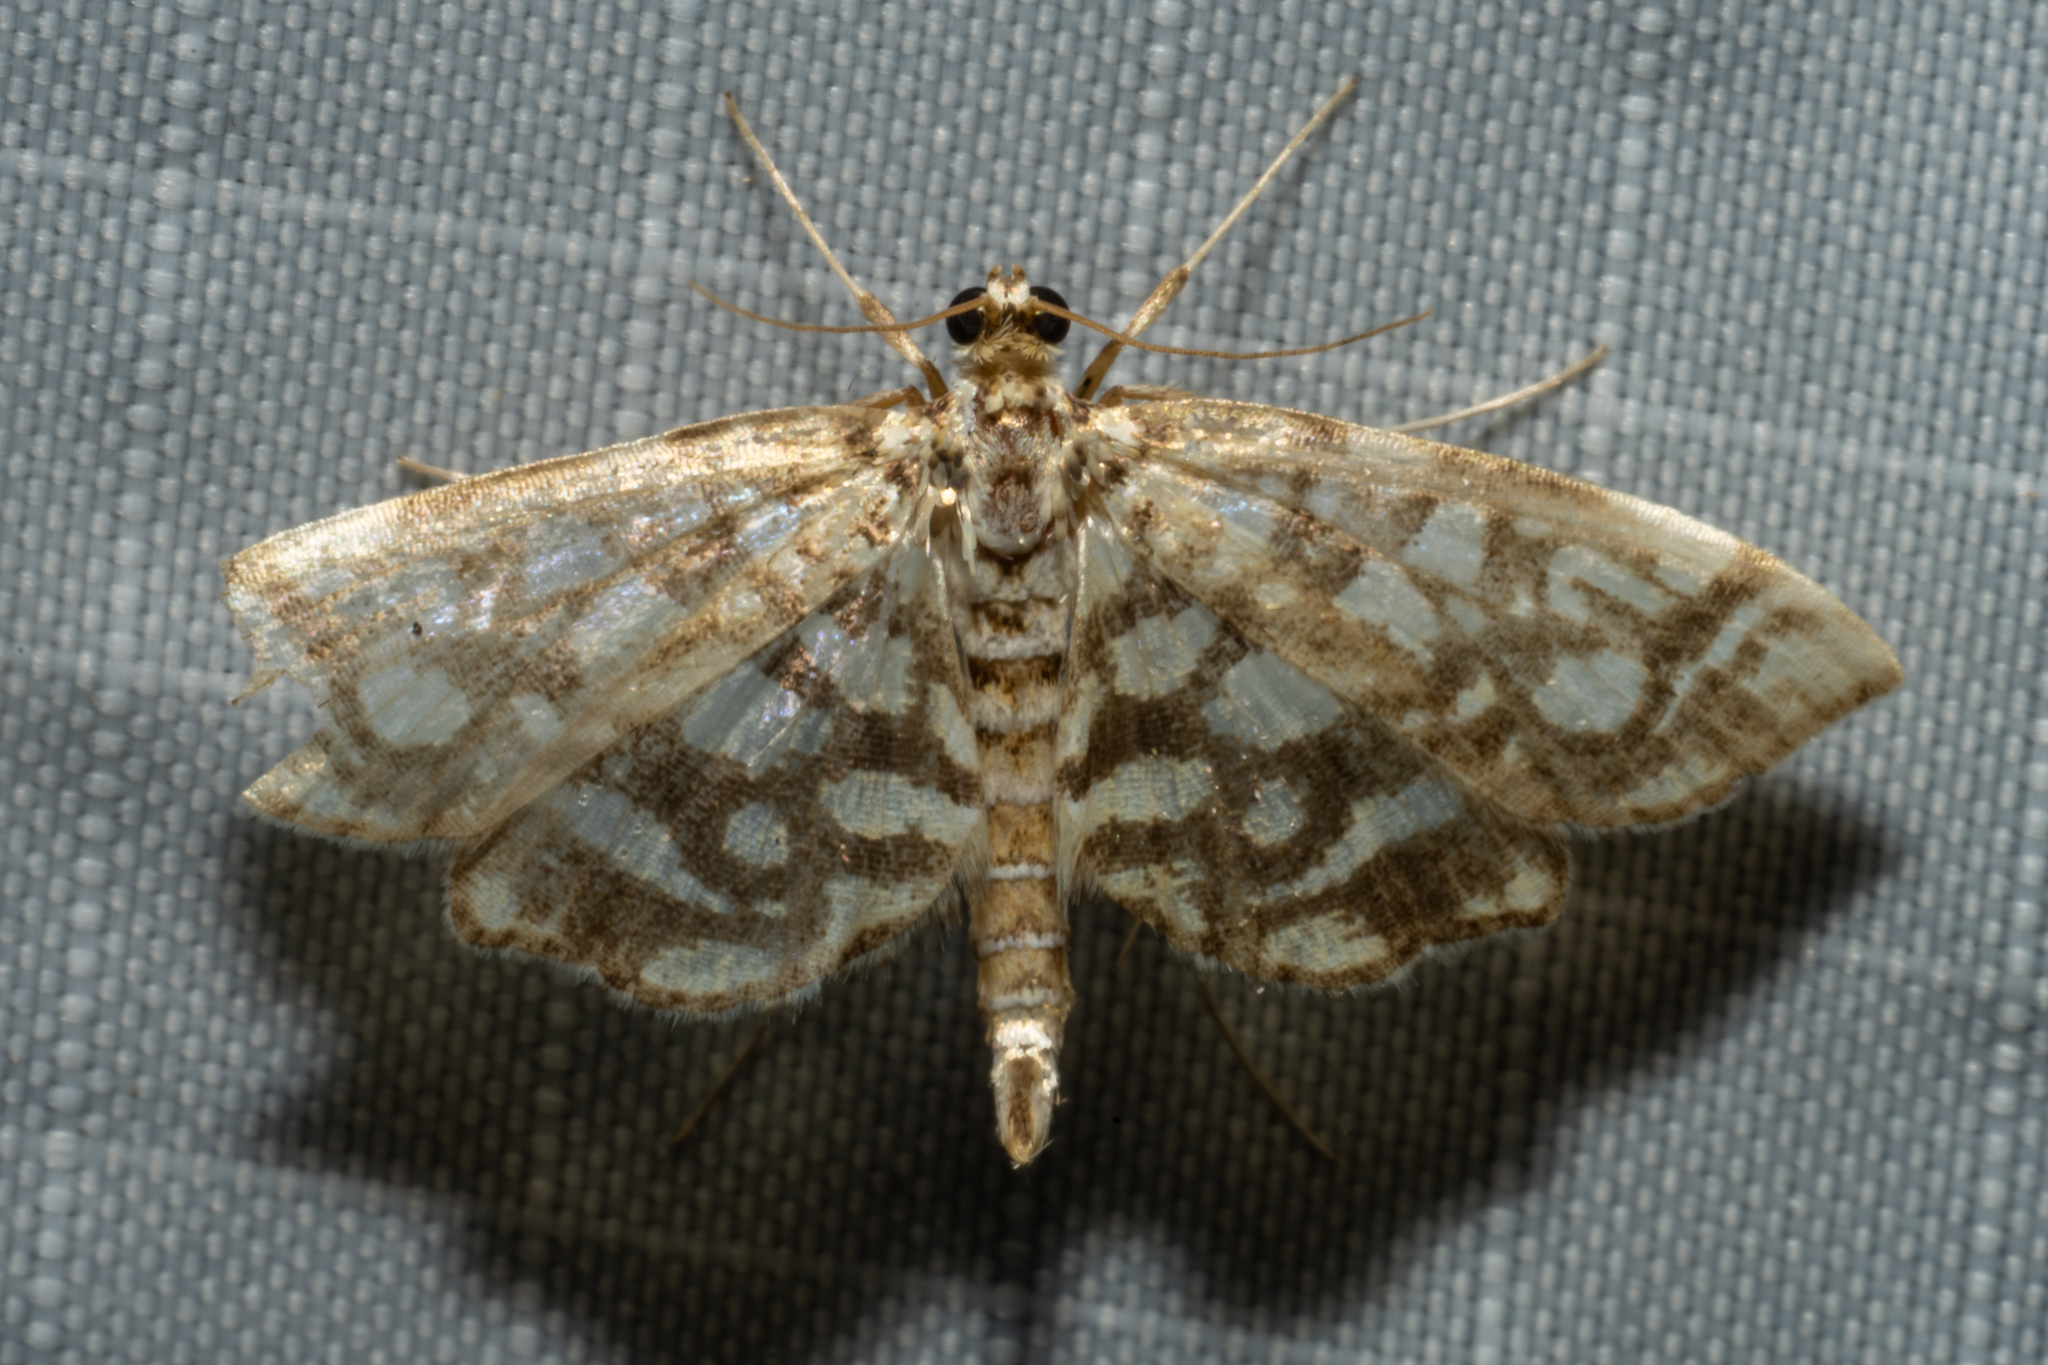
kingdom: Animalia
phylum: Arthropoda
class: Insecta
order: Lepidoptera
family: Crambidae
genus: Lygropia
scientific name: Lygropia rivulalis
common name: Bog lygropia moth
